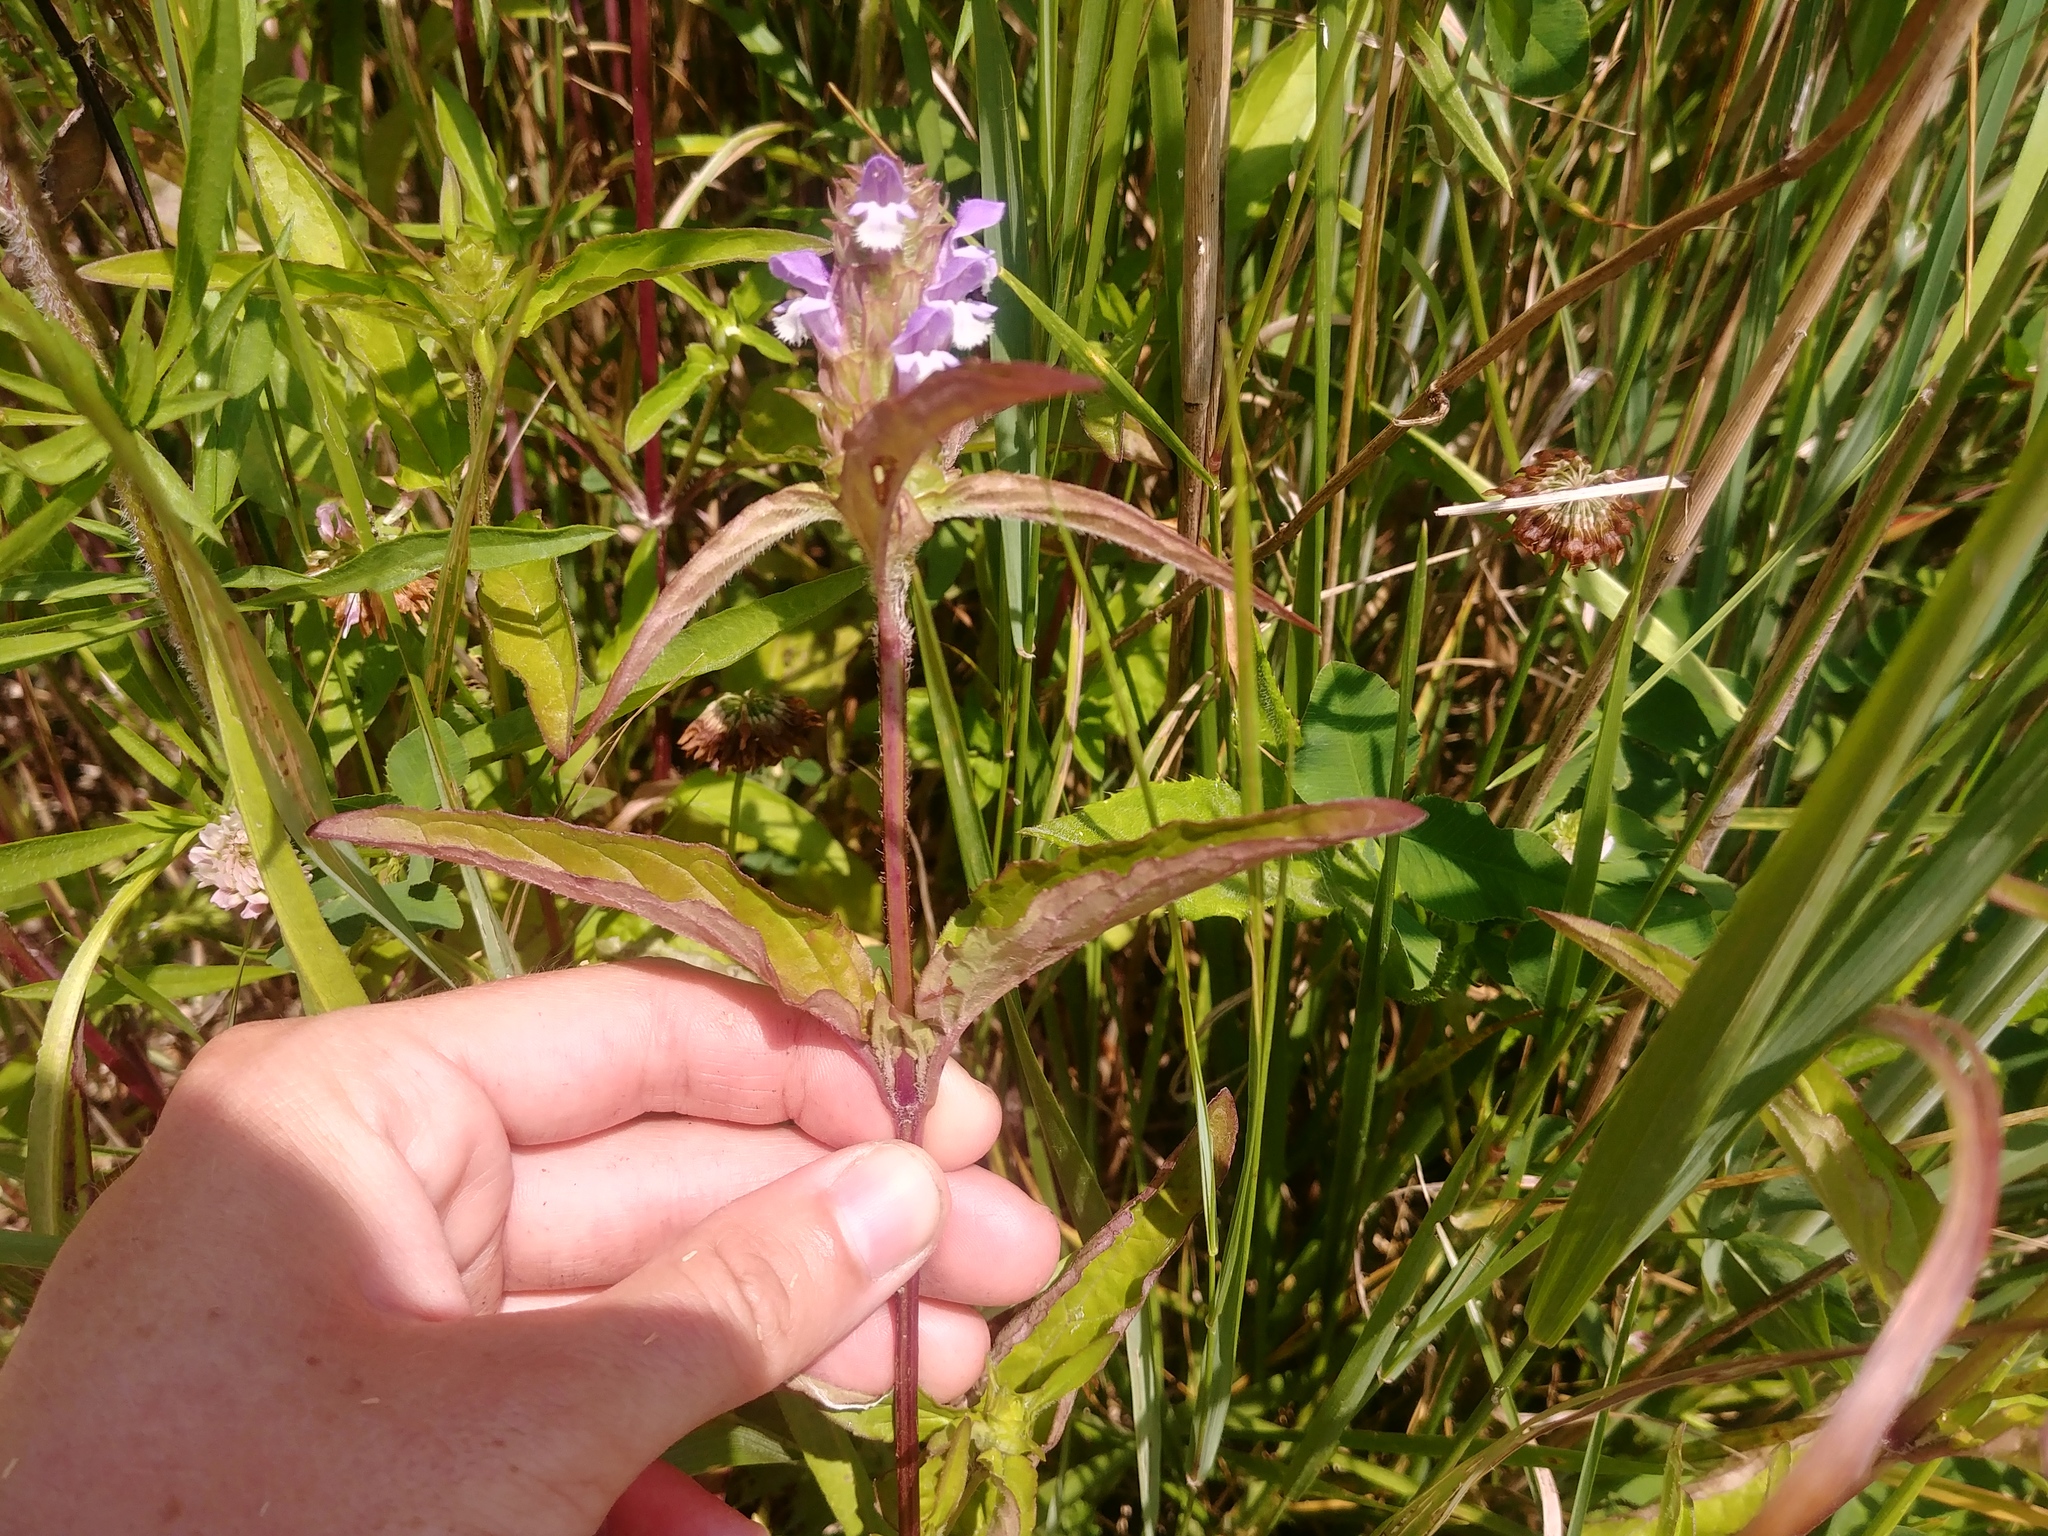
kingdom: Plantae
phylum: Tracheophyta
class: Magnoliopsida
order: Lamiales
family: Lamiaceae
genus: Prunella
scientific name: Prunella vulgaris
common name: Heal-all
